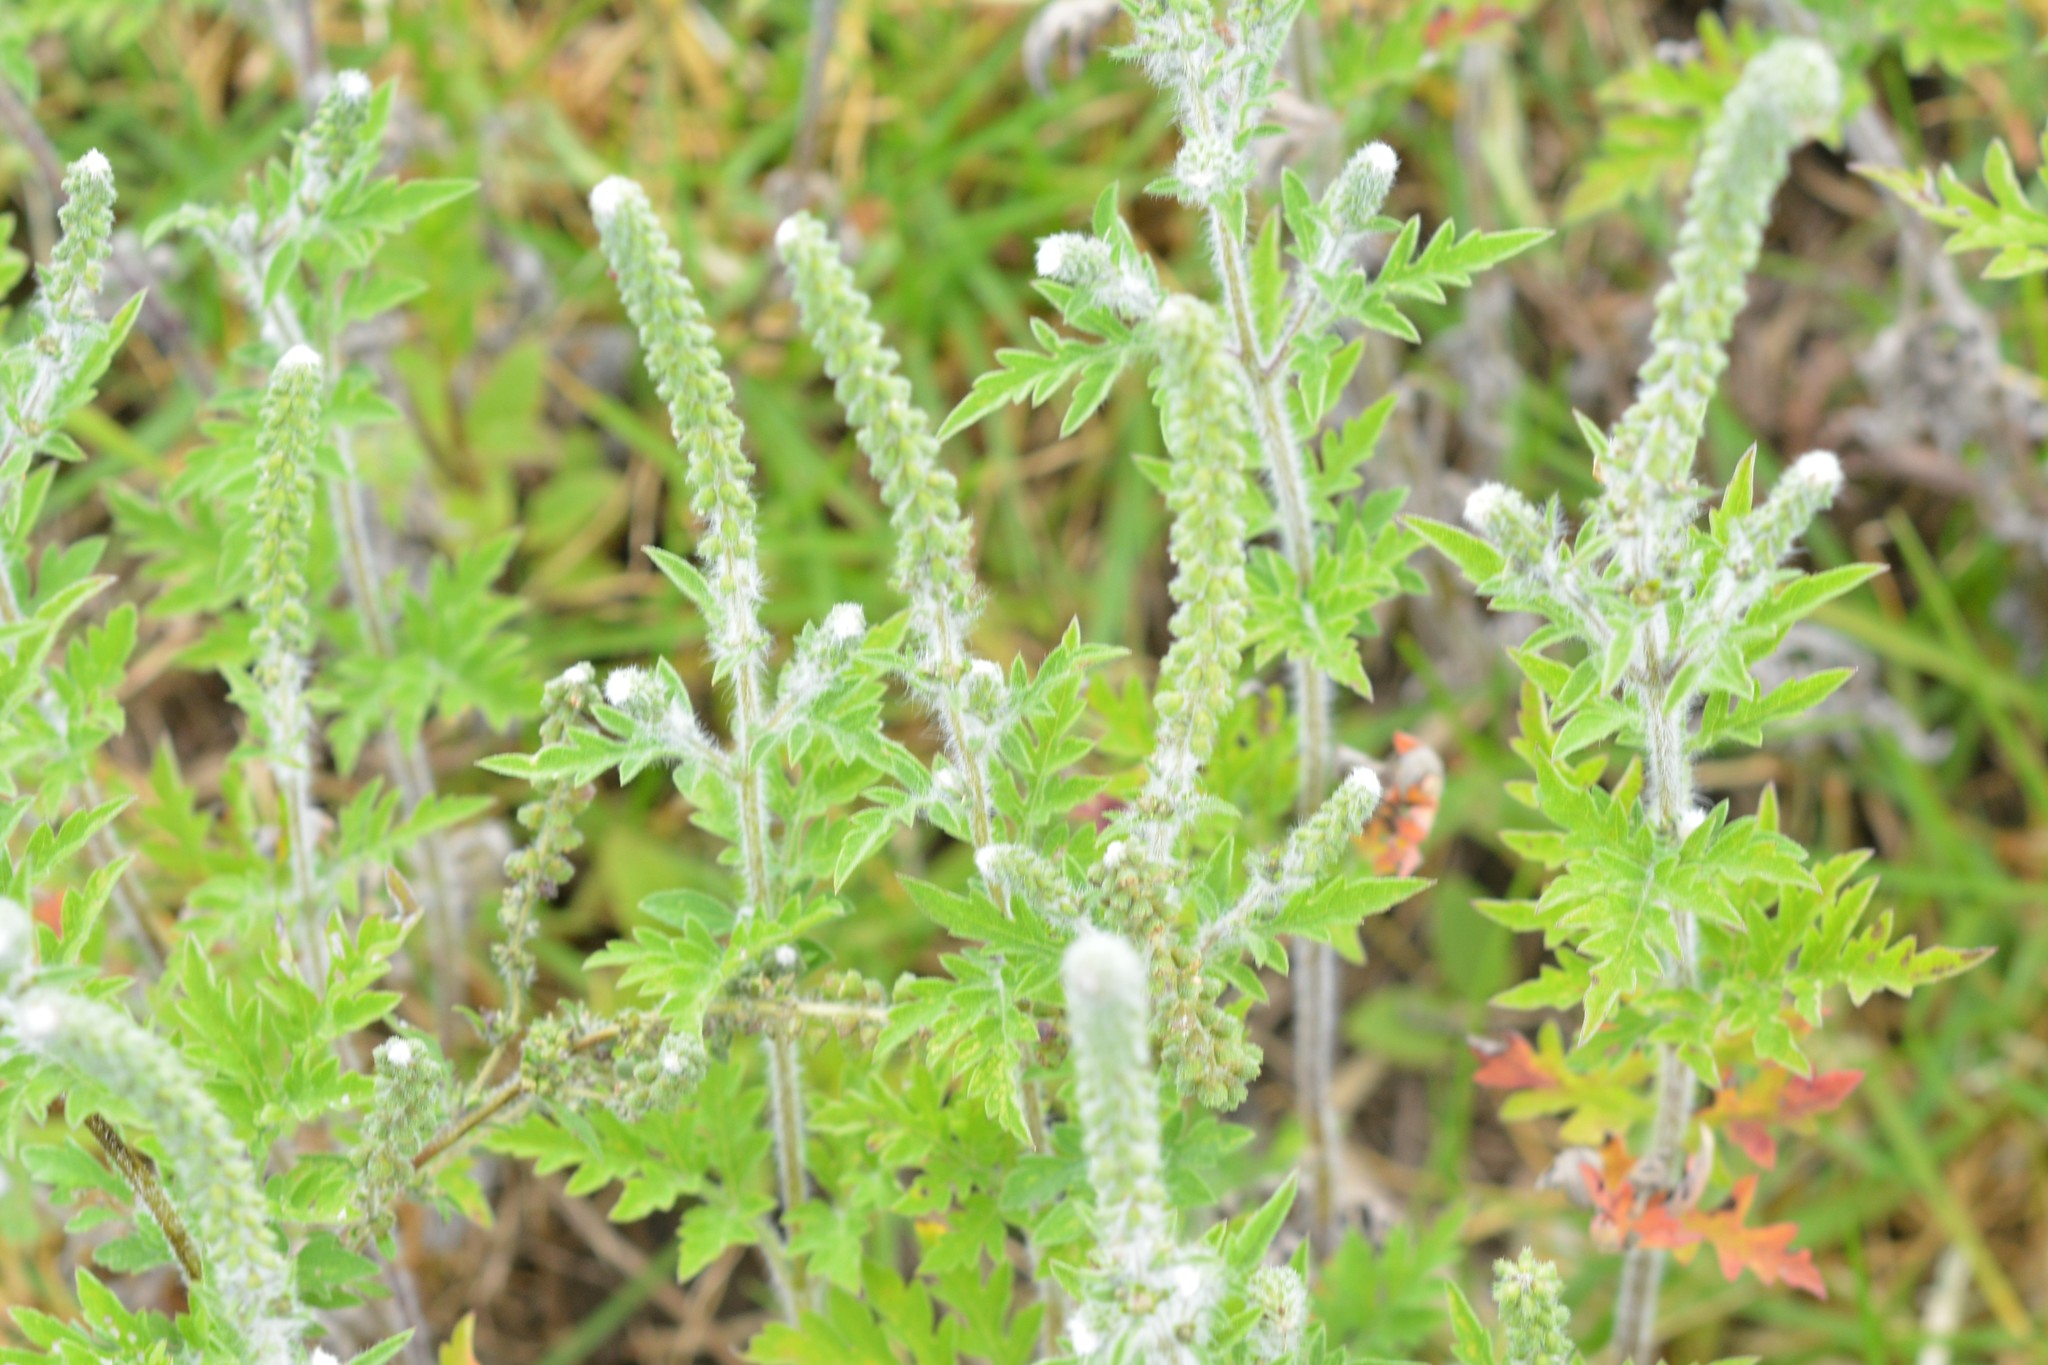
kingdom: Plantae
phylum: Tracheophyta
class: Magnoliopsida
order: Asterales
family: Asteraceae
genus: Ambrosia
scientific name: Ambrosia
